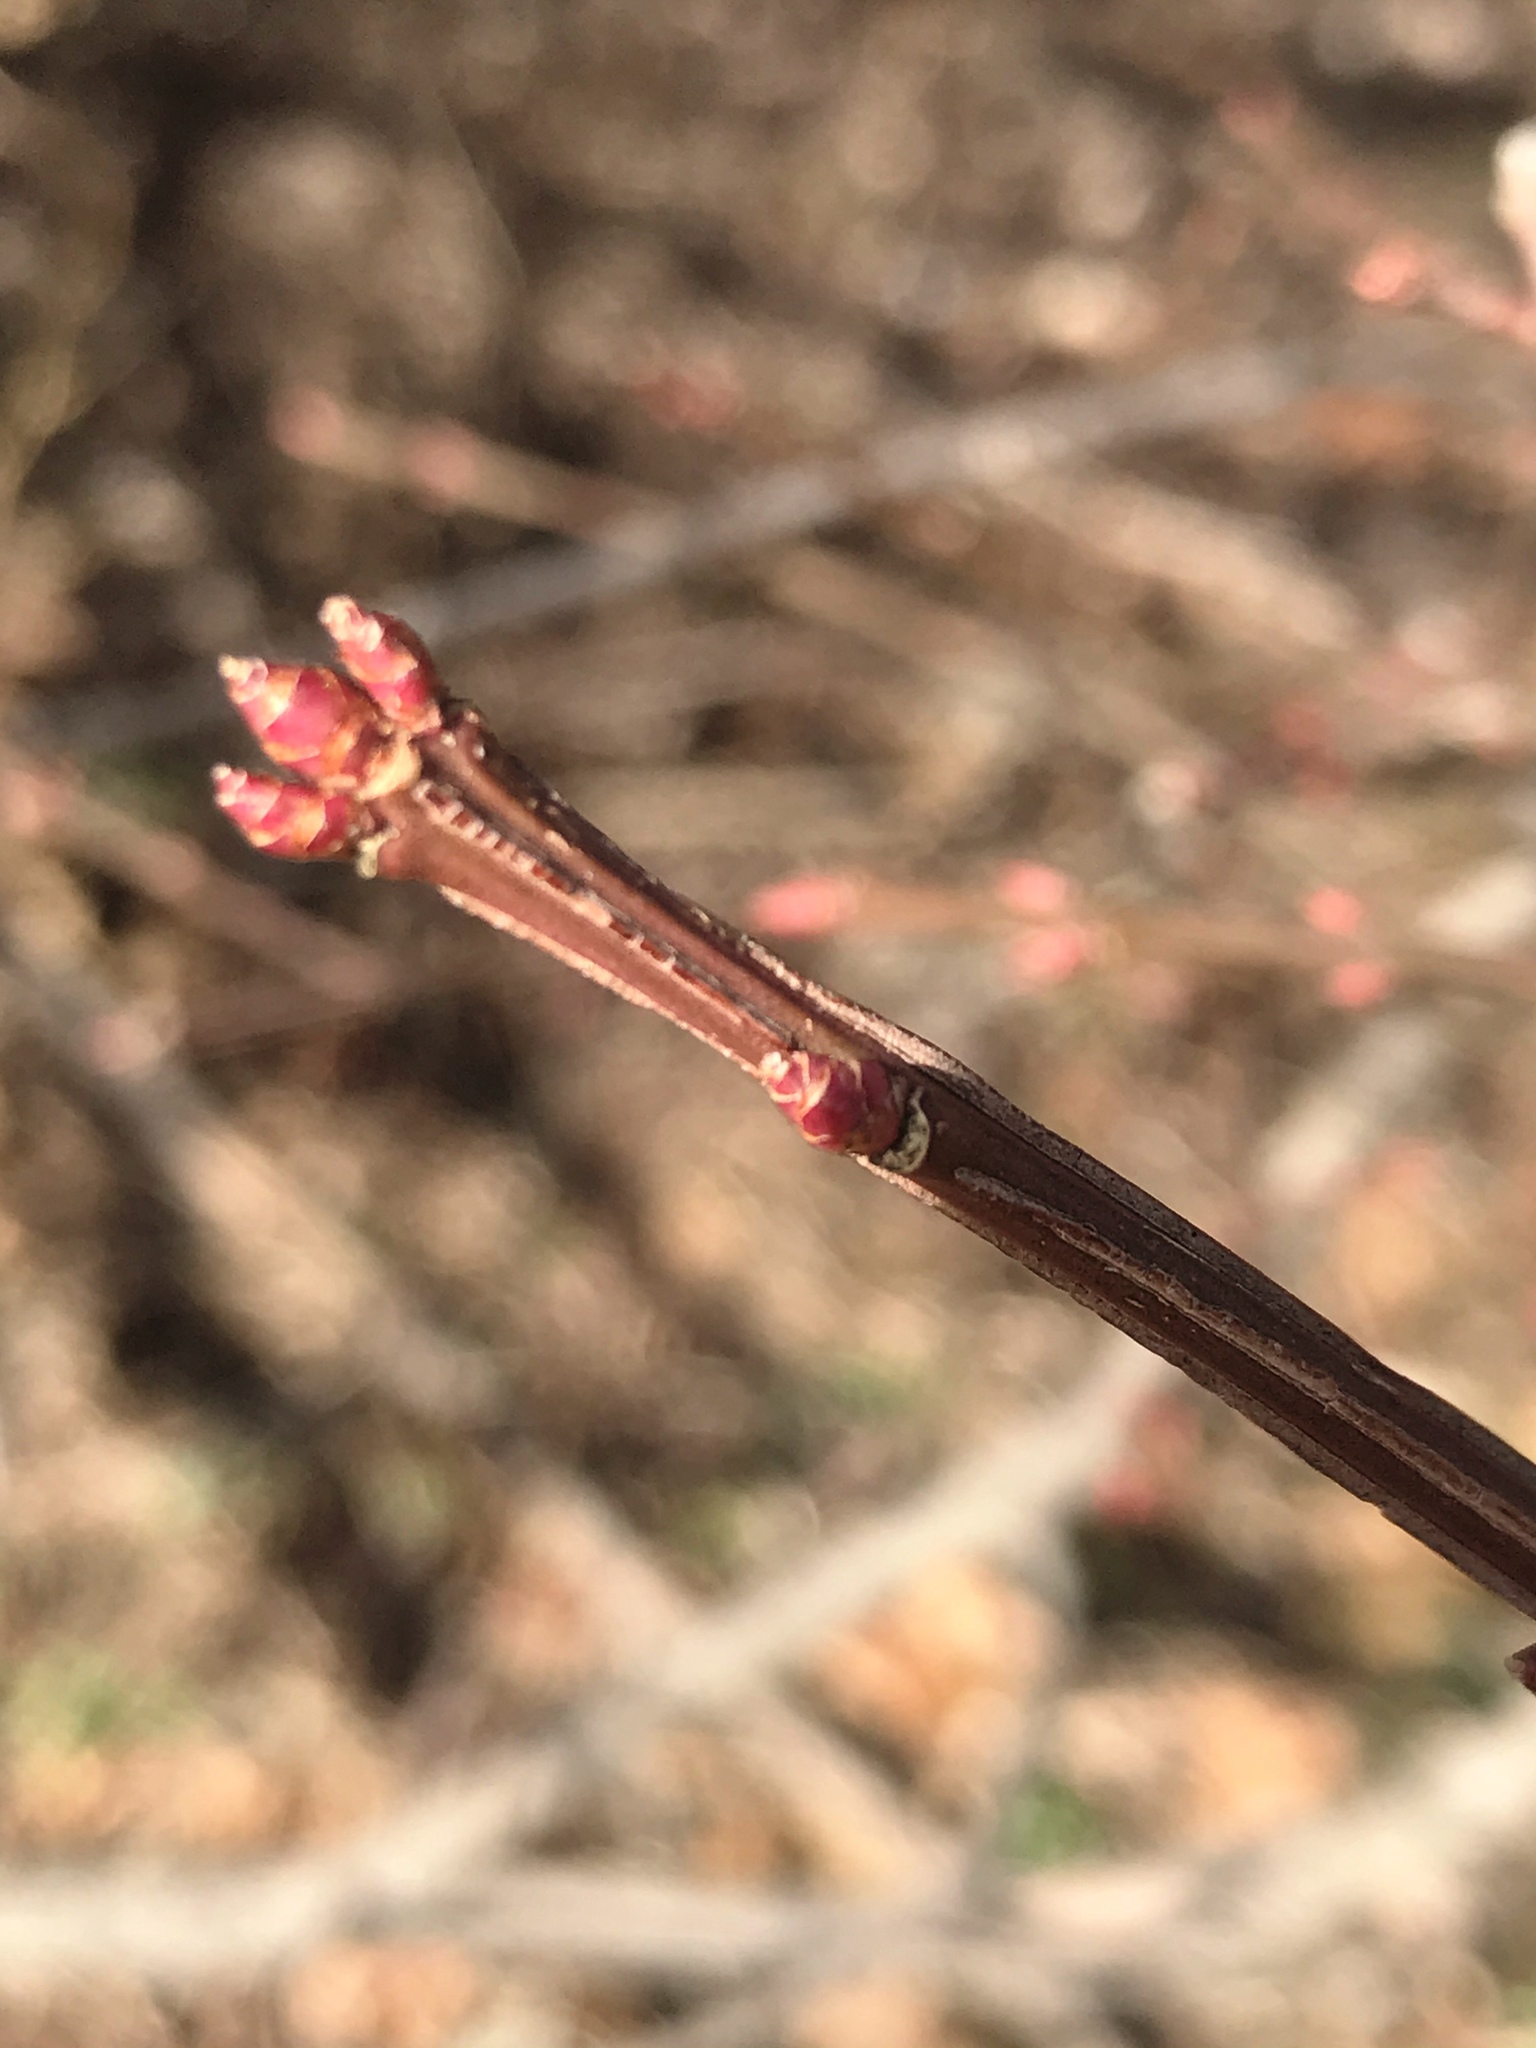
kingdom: Plantae
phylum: Tracheophyta
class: Magnoliopsida
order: Celastrales
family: Celastraceae
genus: Euonymus
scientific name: Euonymus alatus
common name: Winged euonymus
